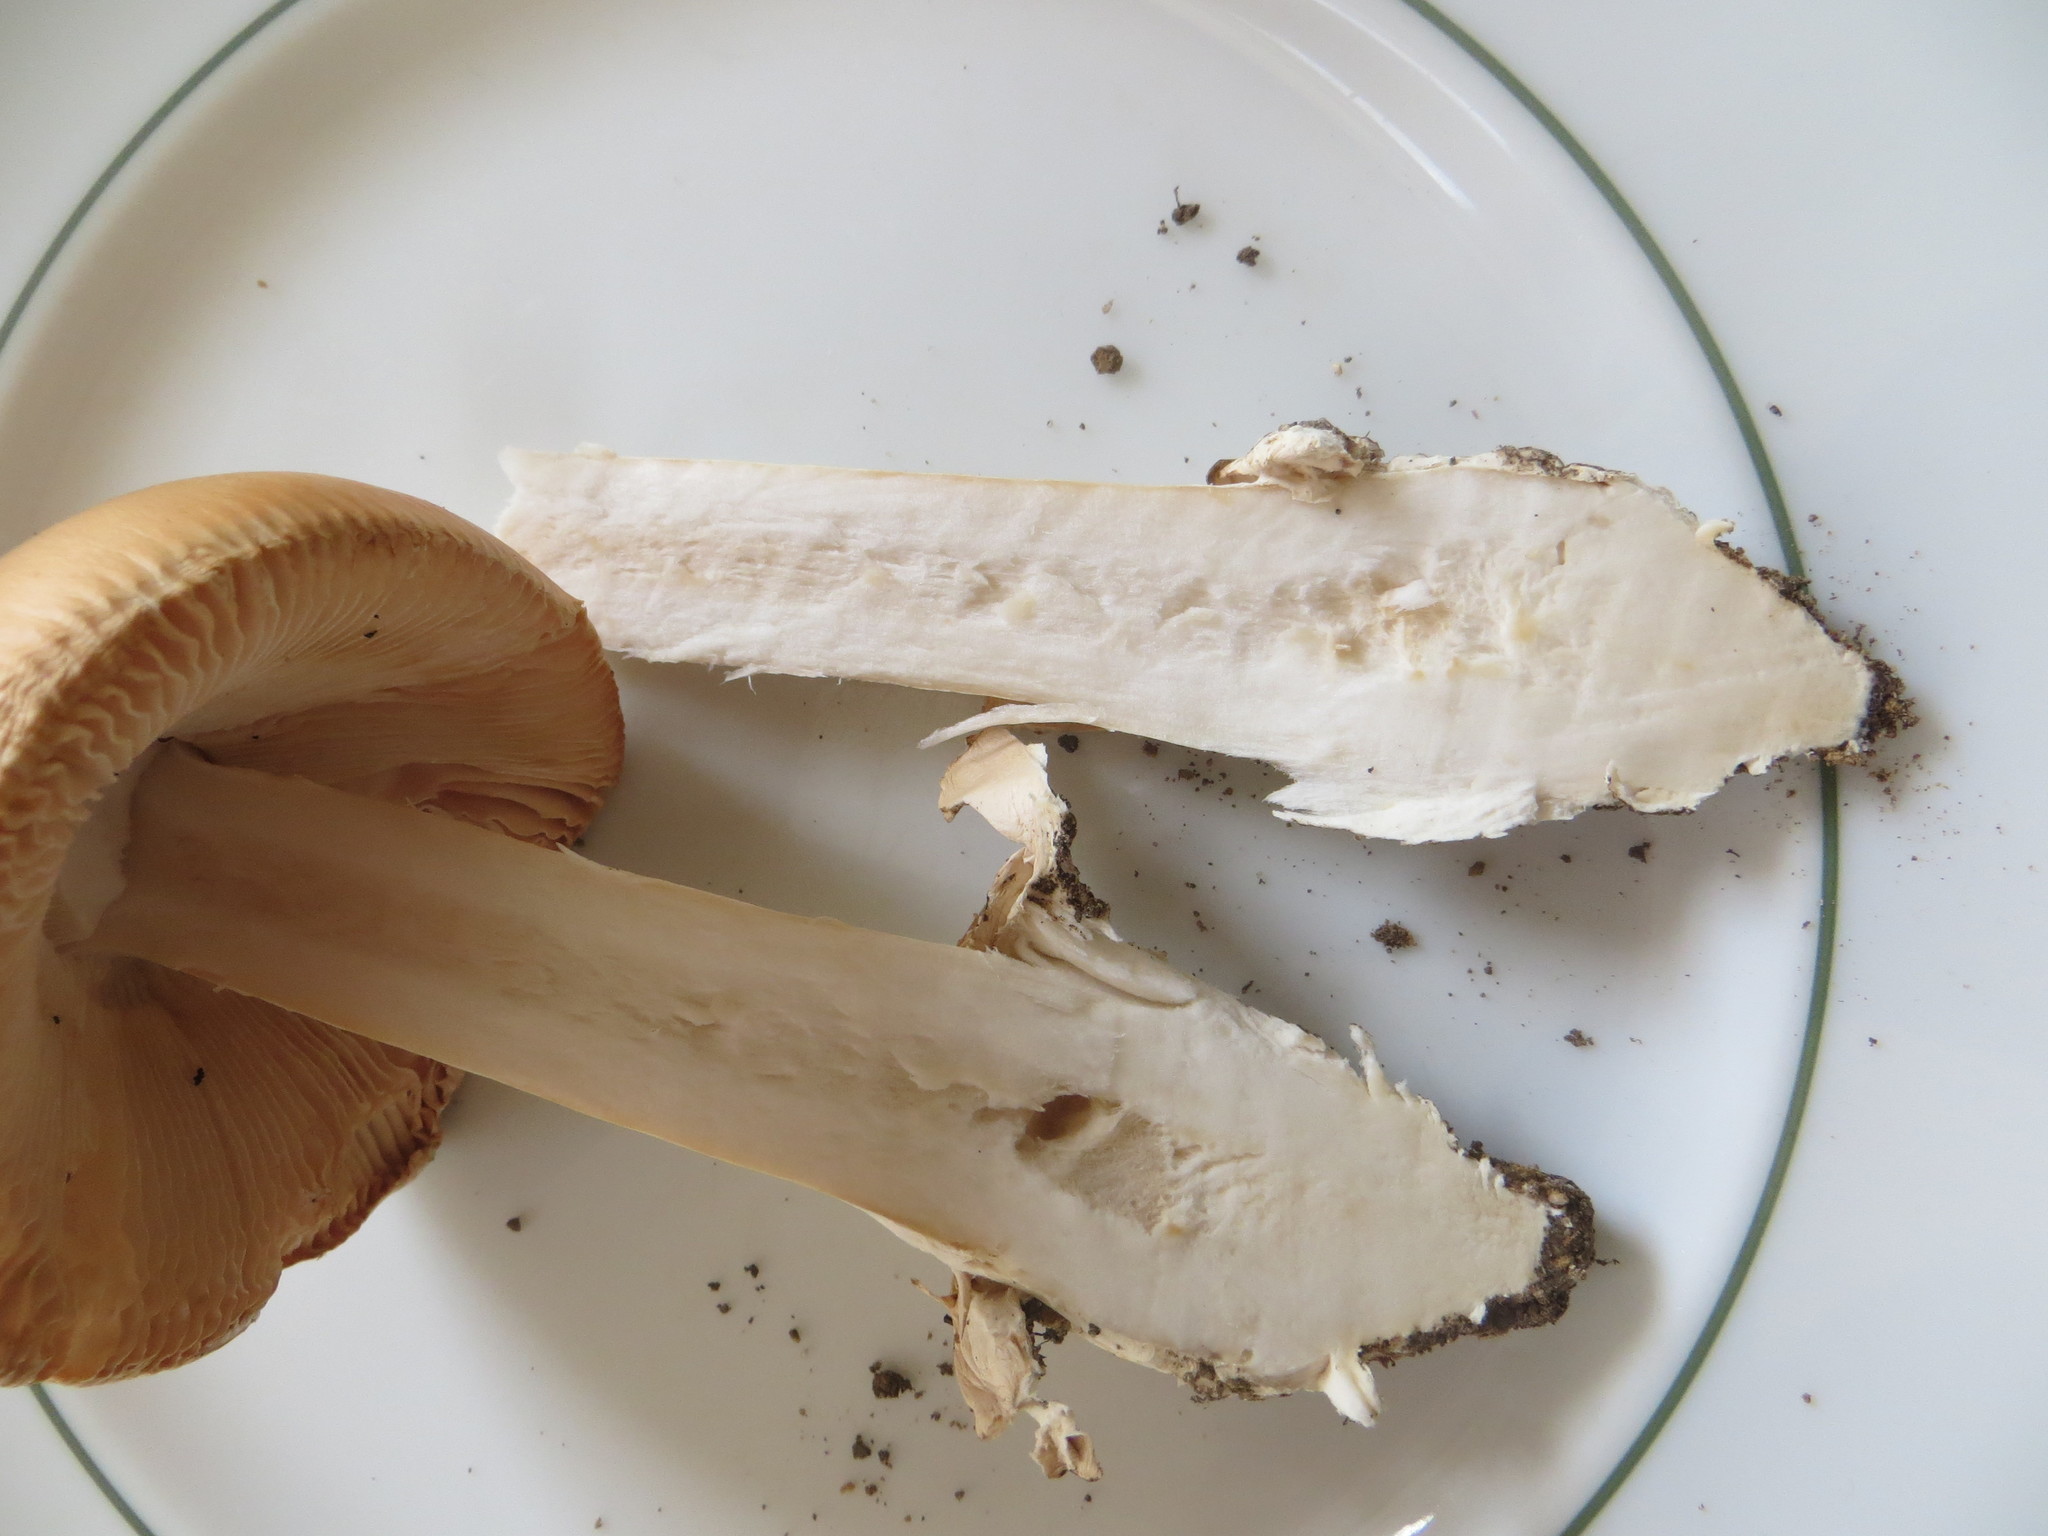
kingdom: Fungi
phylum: Basidiomycota
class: Agaricomycetes
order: Agaricales
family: Amanitaceae
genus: Amanita
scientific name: Amanita velosa
